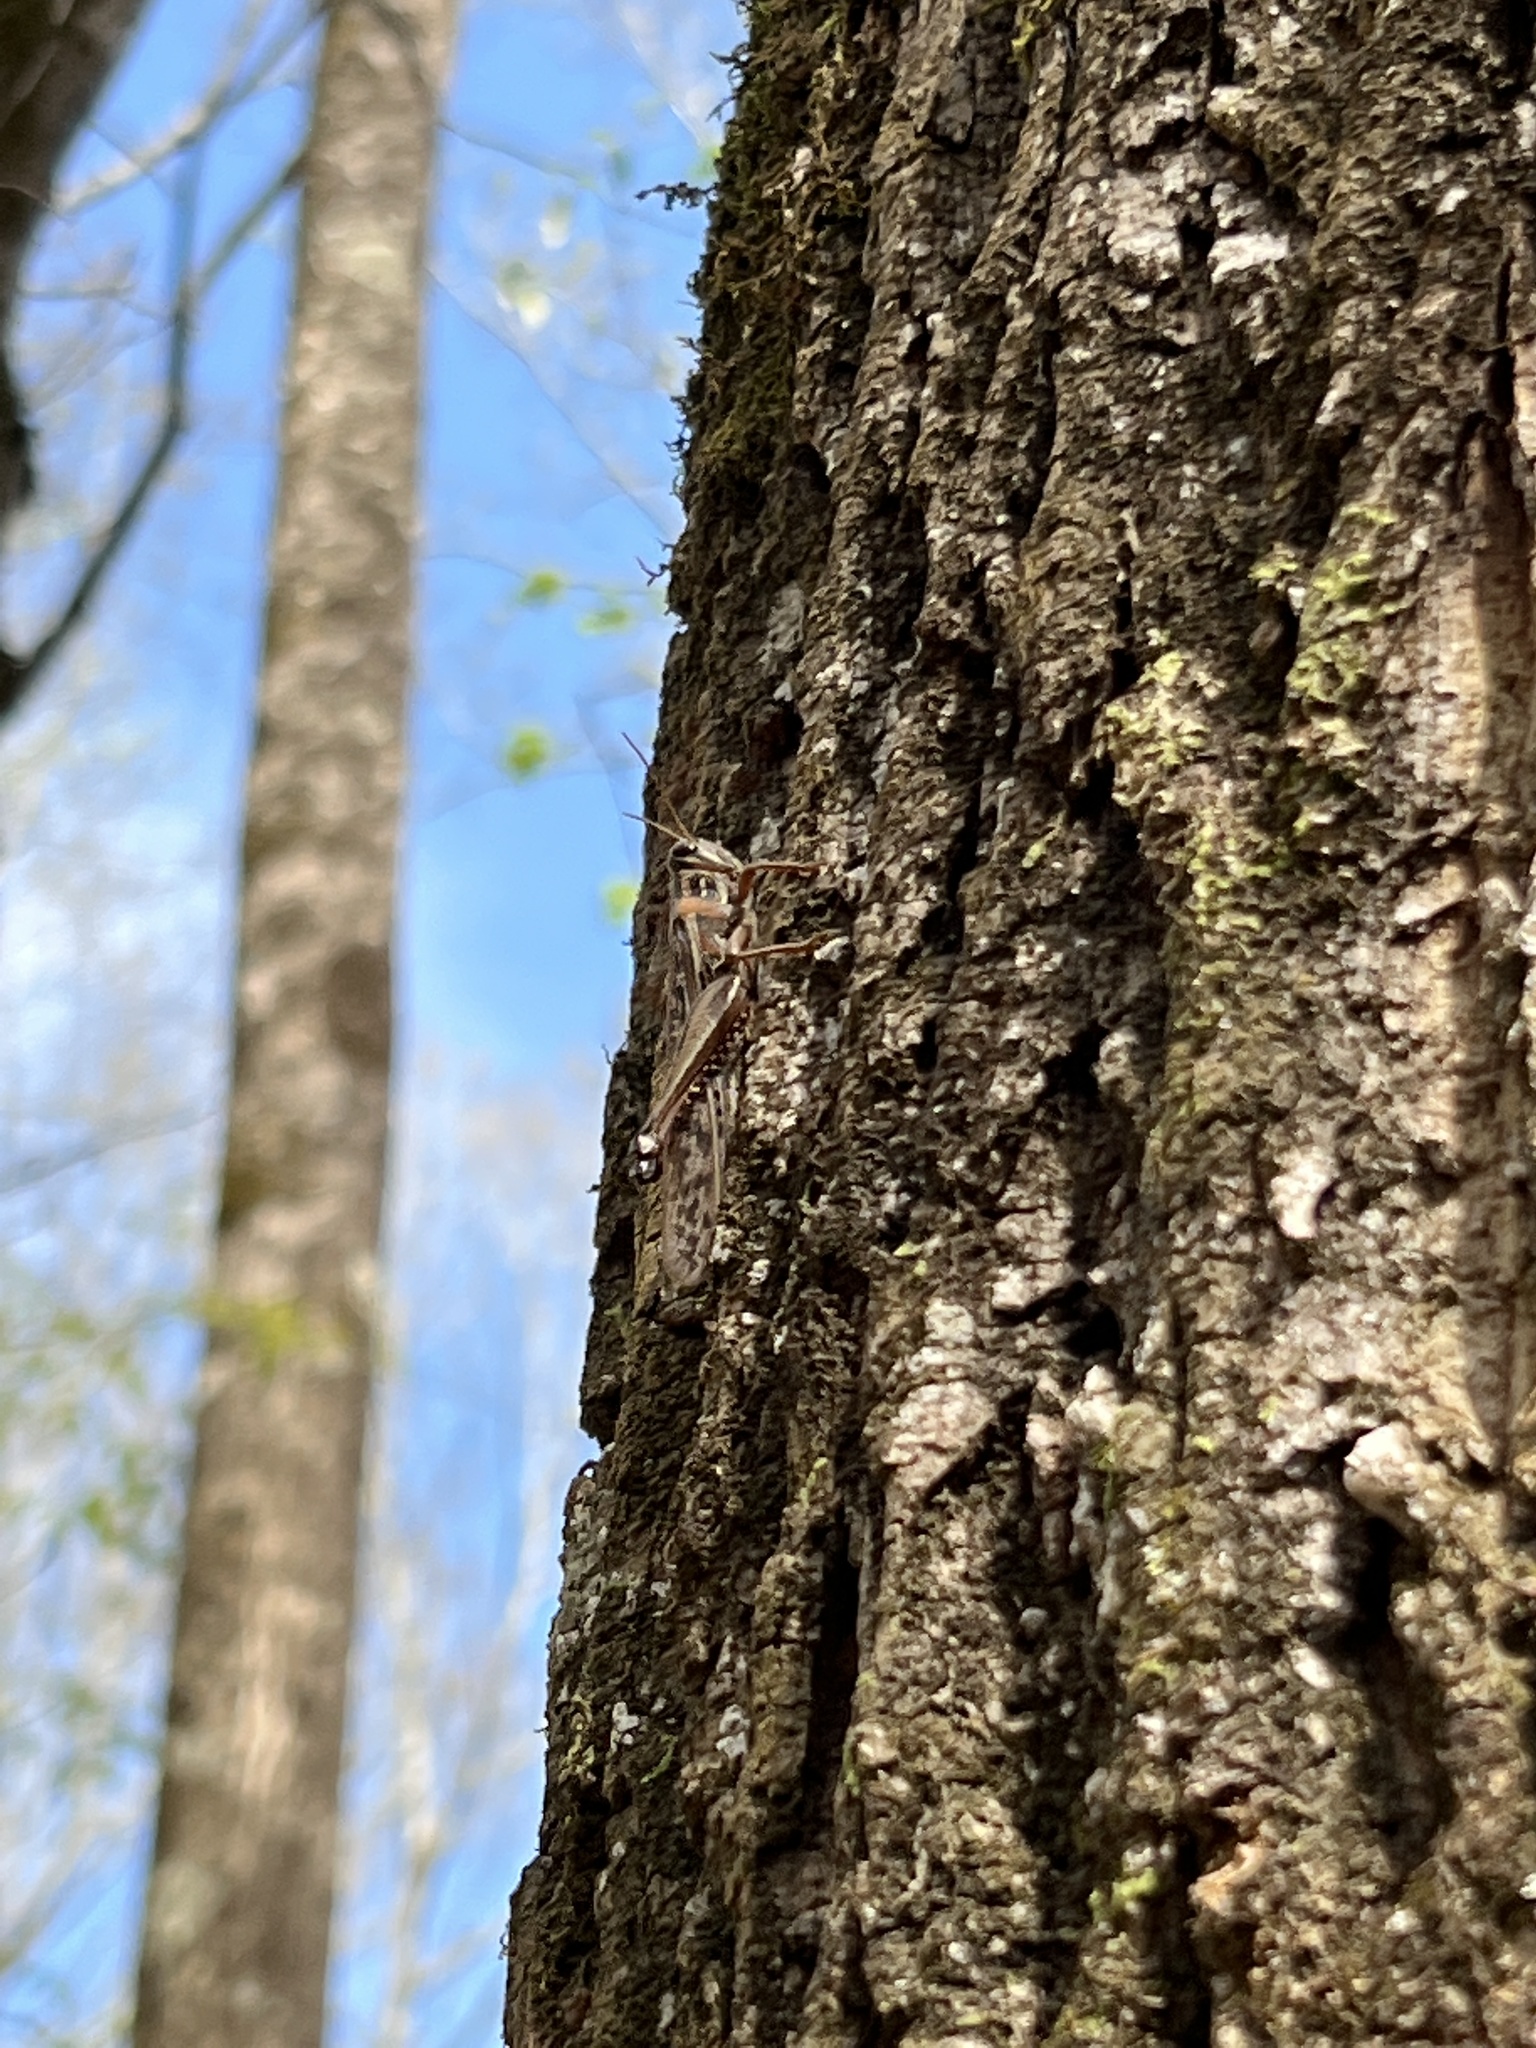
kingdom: Animalia
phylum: Arthropoda
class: Insecta
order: Orthoptera
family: Acrididae
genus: Schistocerca
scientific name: Schistocerca americana
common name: American bird locust
